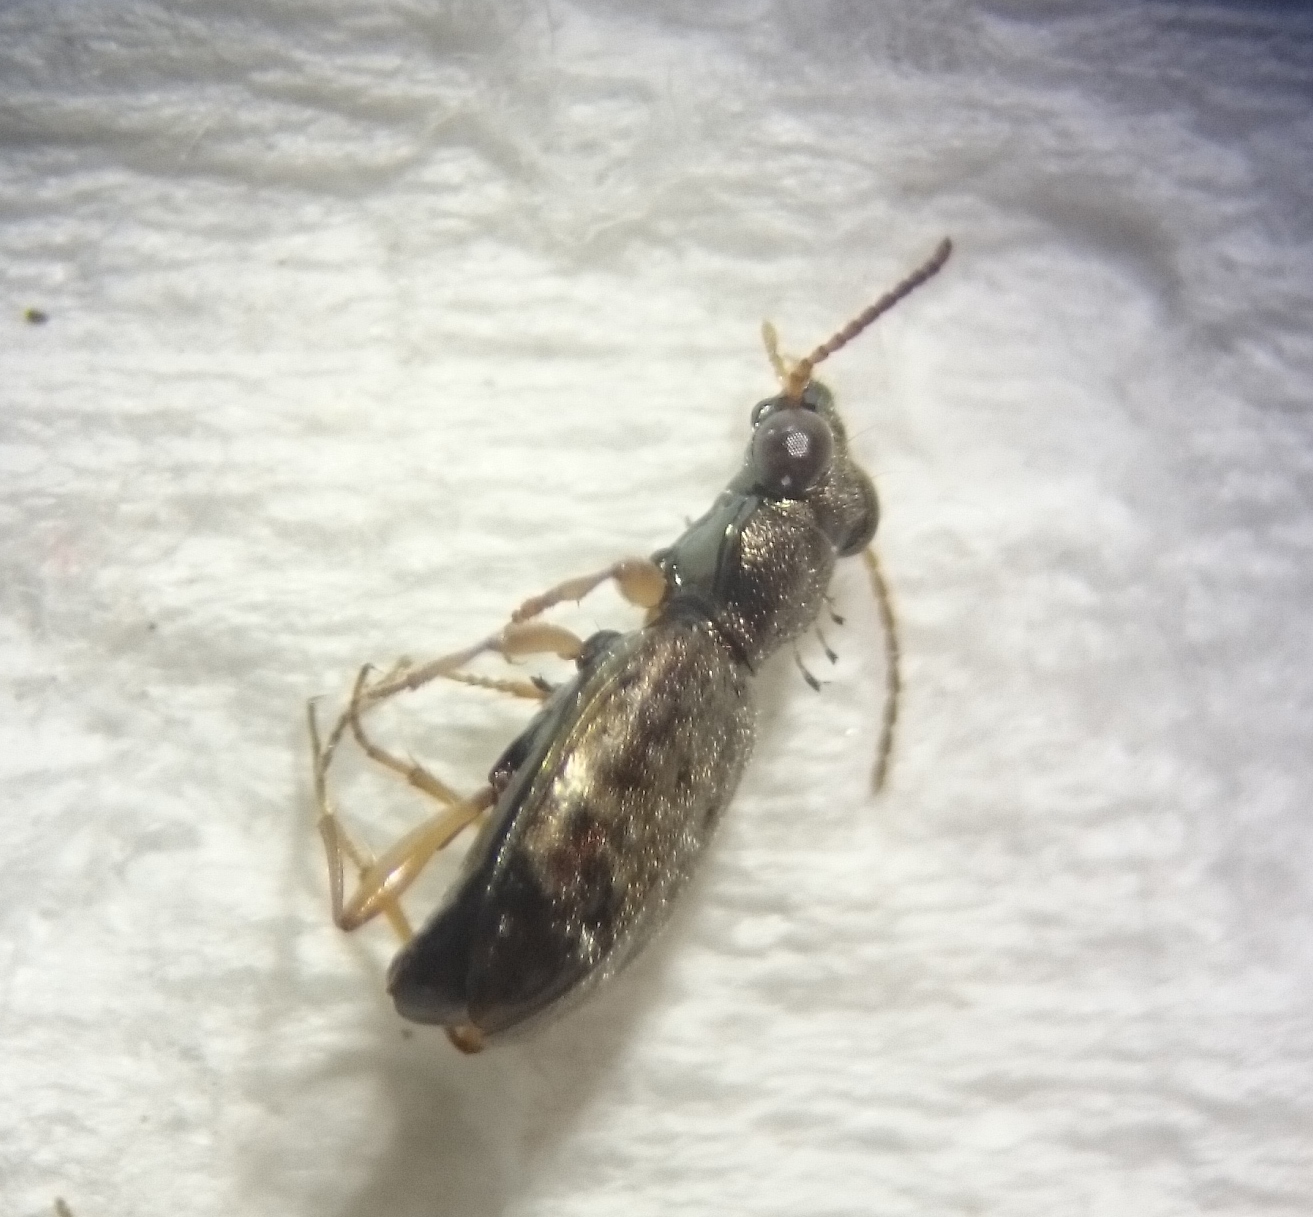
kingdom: Animalia
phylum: Arthropoda
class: Insecta
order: Coleoptera
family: Carabidae
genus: Asaphidion
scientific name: Asaphidion curtum
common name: Ground beetle
